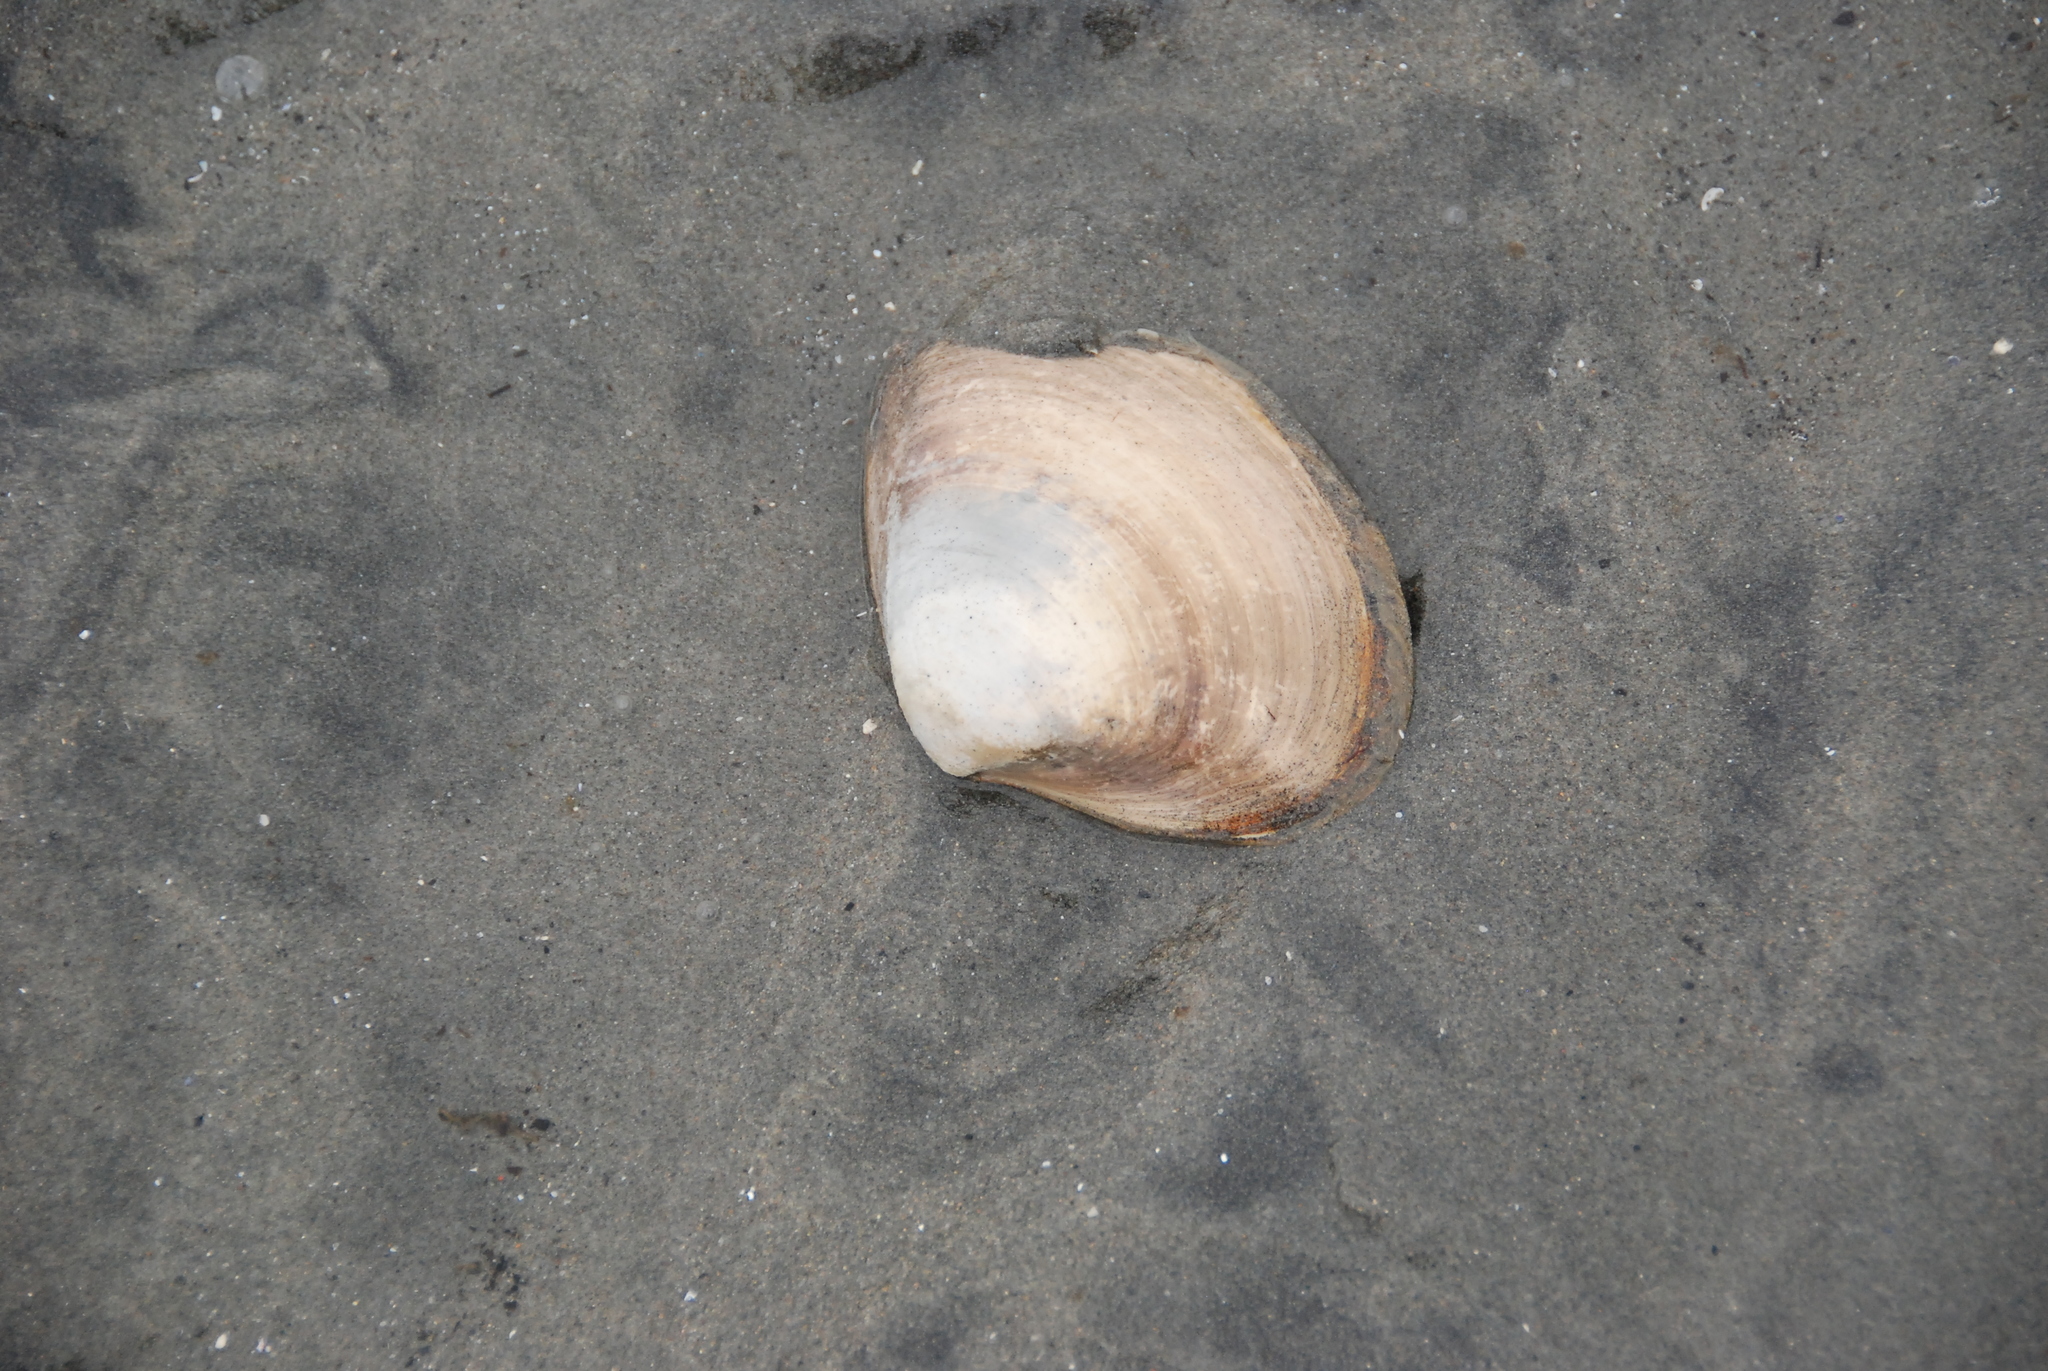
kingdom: Animalia
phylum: Mollusca
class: Bivalvia
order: Venerida
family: Mactridae
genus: Spisula
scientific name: Spisula solidissima
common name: Atlantic surf clam
